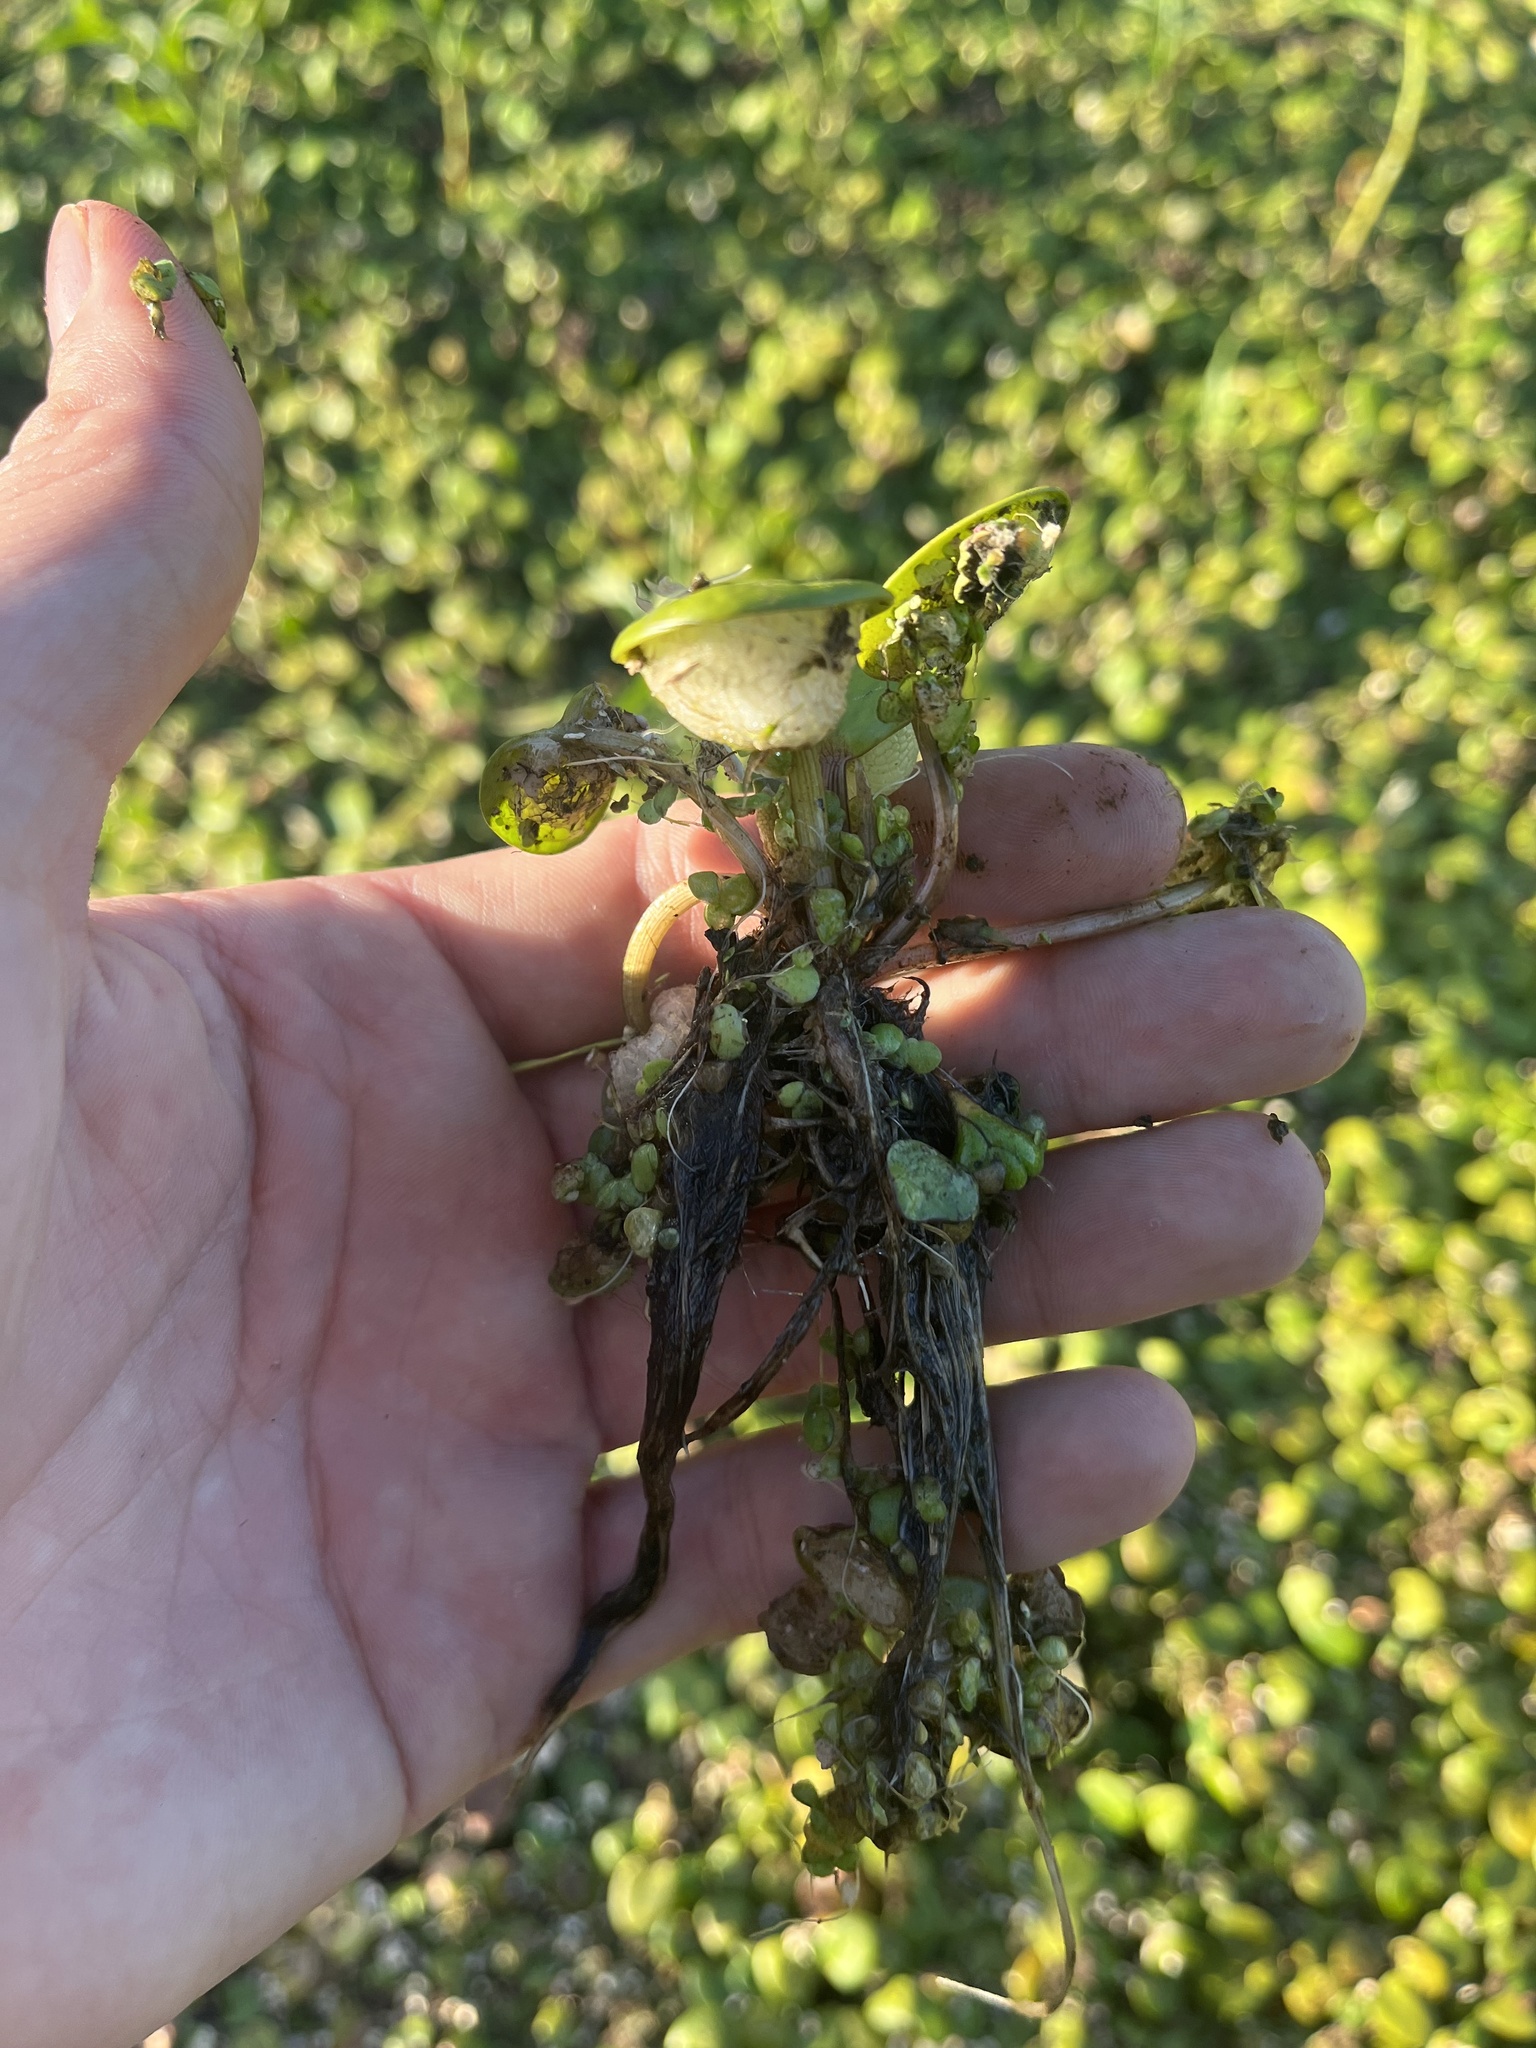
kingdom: Plantae
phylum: Tracheophyta
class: Liliopsida
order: Alismatales
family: Hydrocharitaceae
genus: Hydrocharis
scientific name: Hydrocharis laevigata
